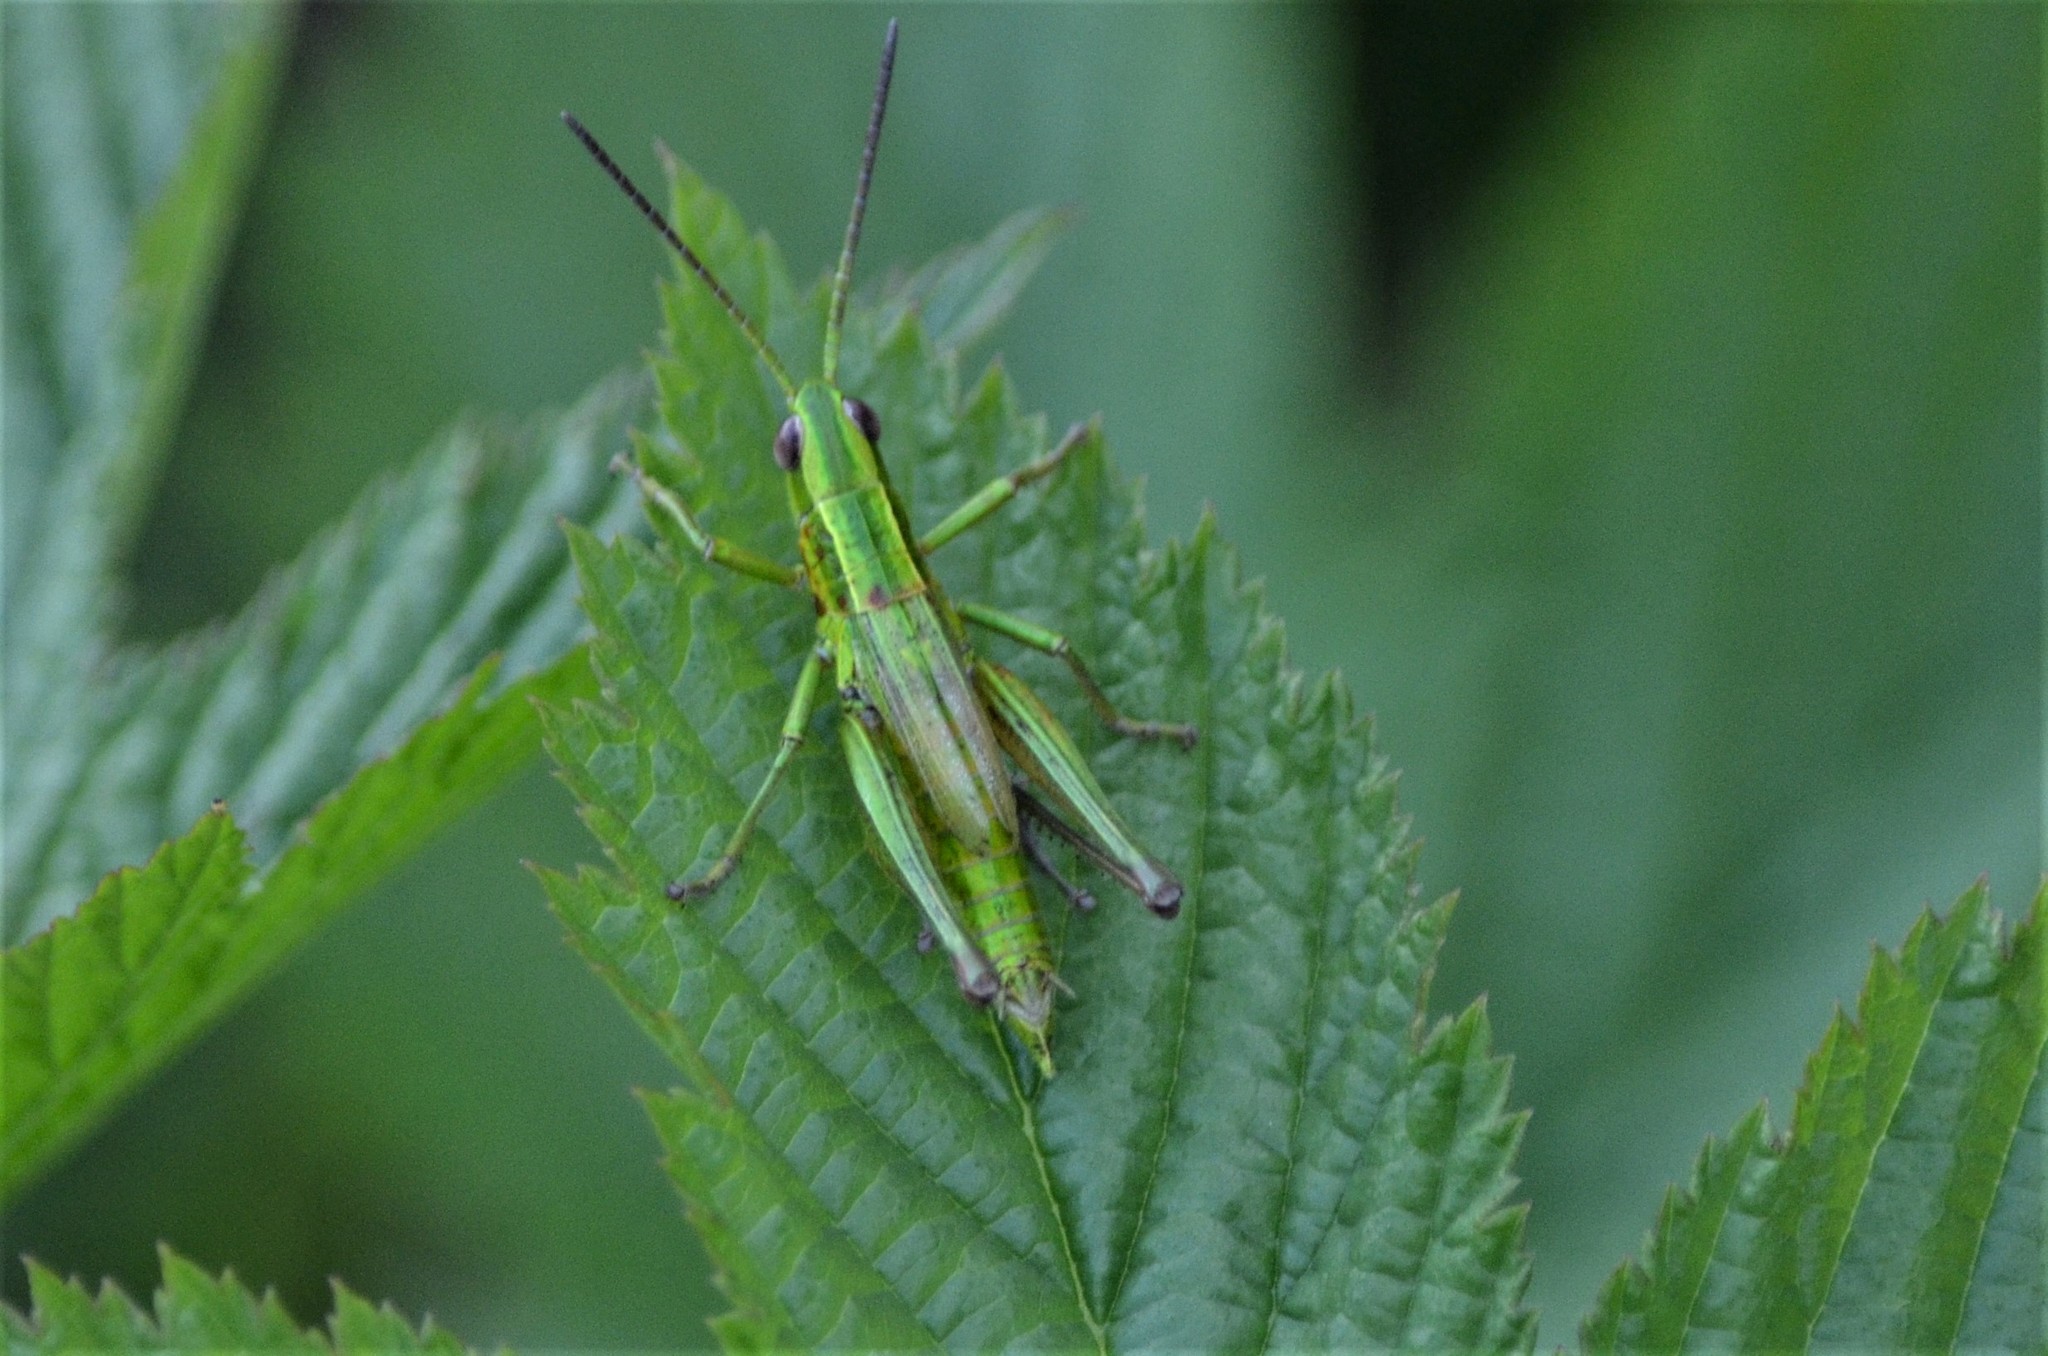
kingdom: Animalia
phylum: Arthropoda
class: Insecta
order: Orthoptera
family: Acrididae
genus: Euthystira
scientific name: Euthystira brachyptera
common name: Small gold grasshopper
